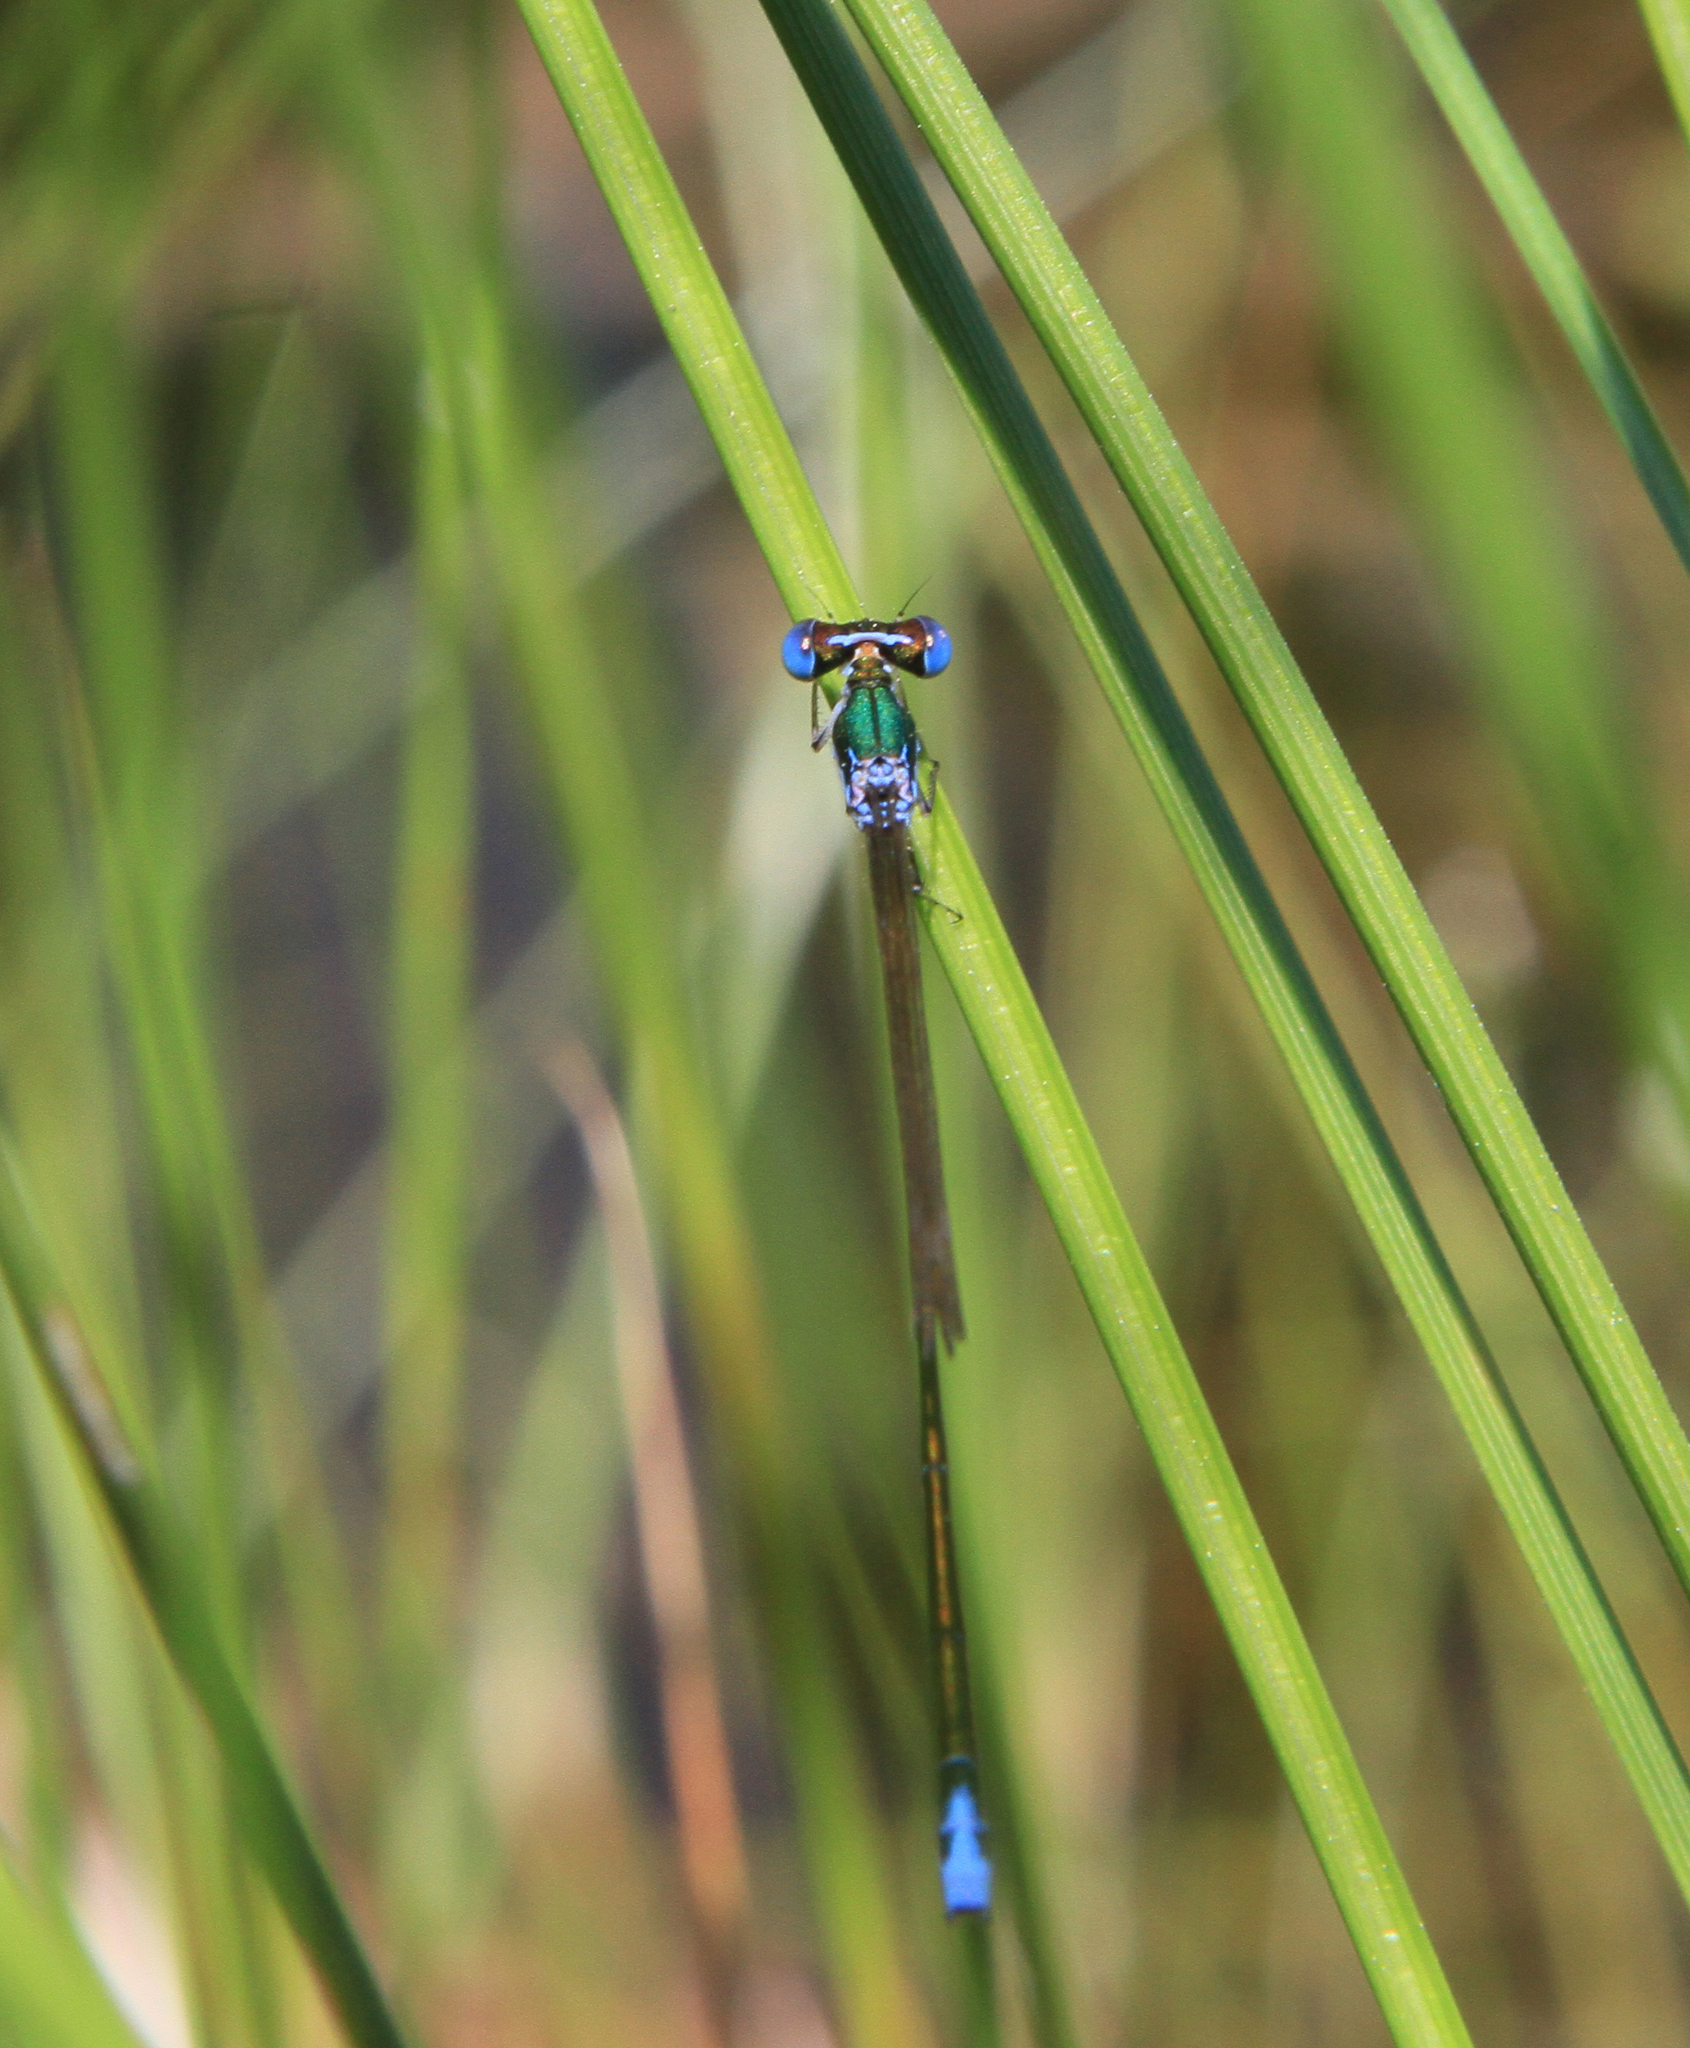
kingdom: Animalia
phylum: Arthropoda
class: Insecta
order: Odonata
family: Coenagrionidae
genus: Nehalennia
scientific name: Nehalennia speciosa
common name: Sedgling
